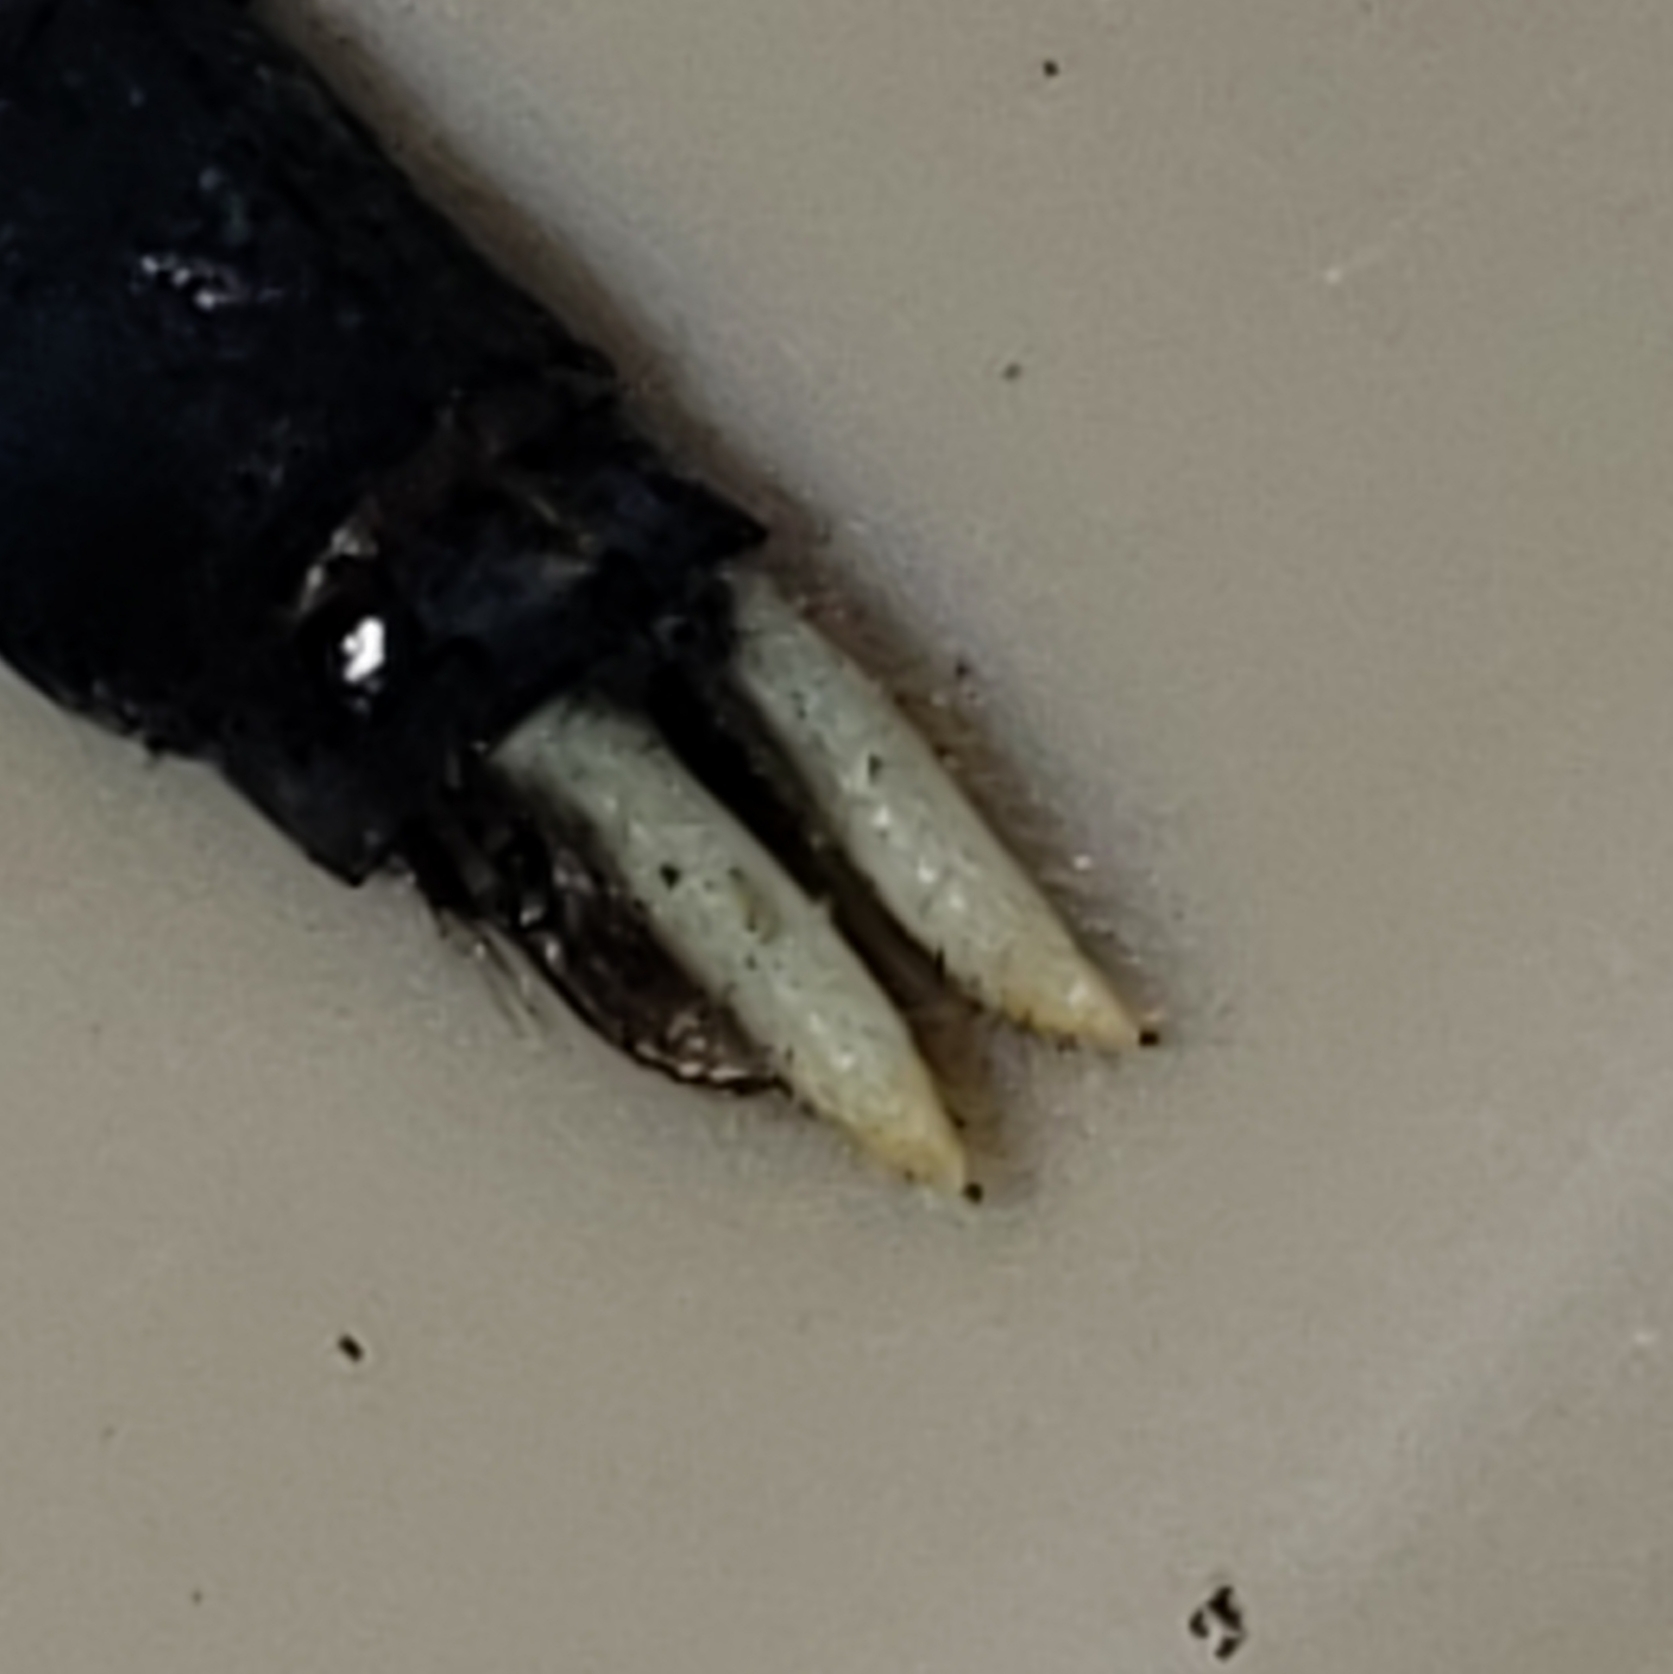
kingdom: Animalia
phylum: Arthropoda
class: Insecta
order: Odonata
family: Libellulidae
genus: Erythemis
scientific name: Erythemis simplicicollis
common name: Eastern pondhawk
